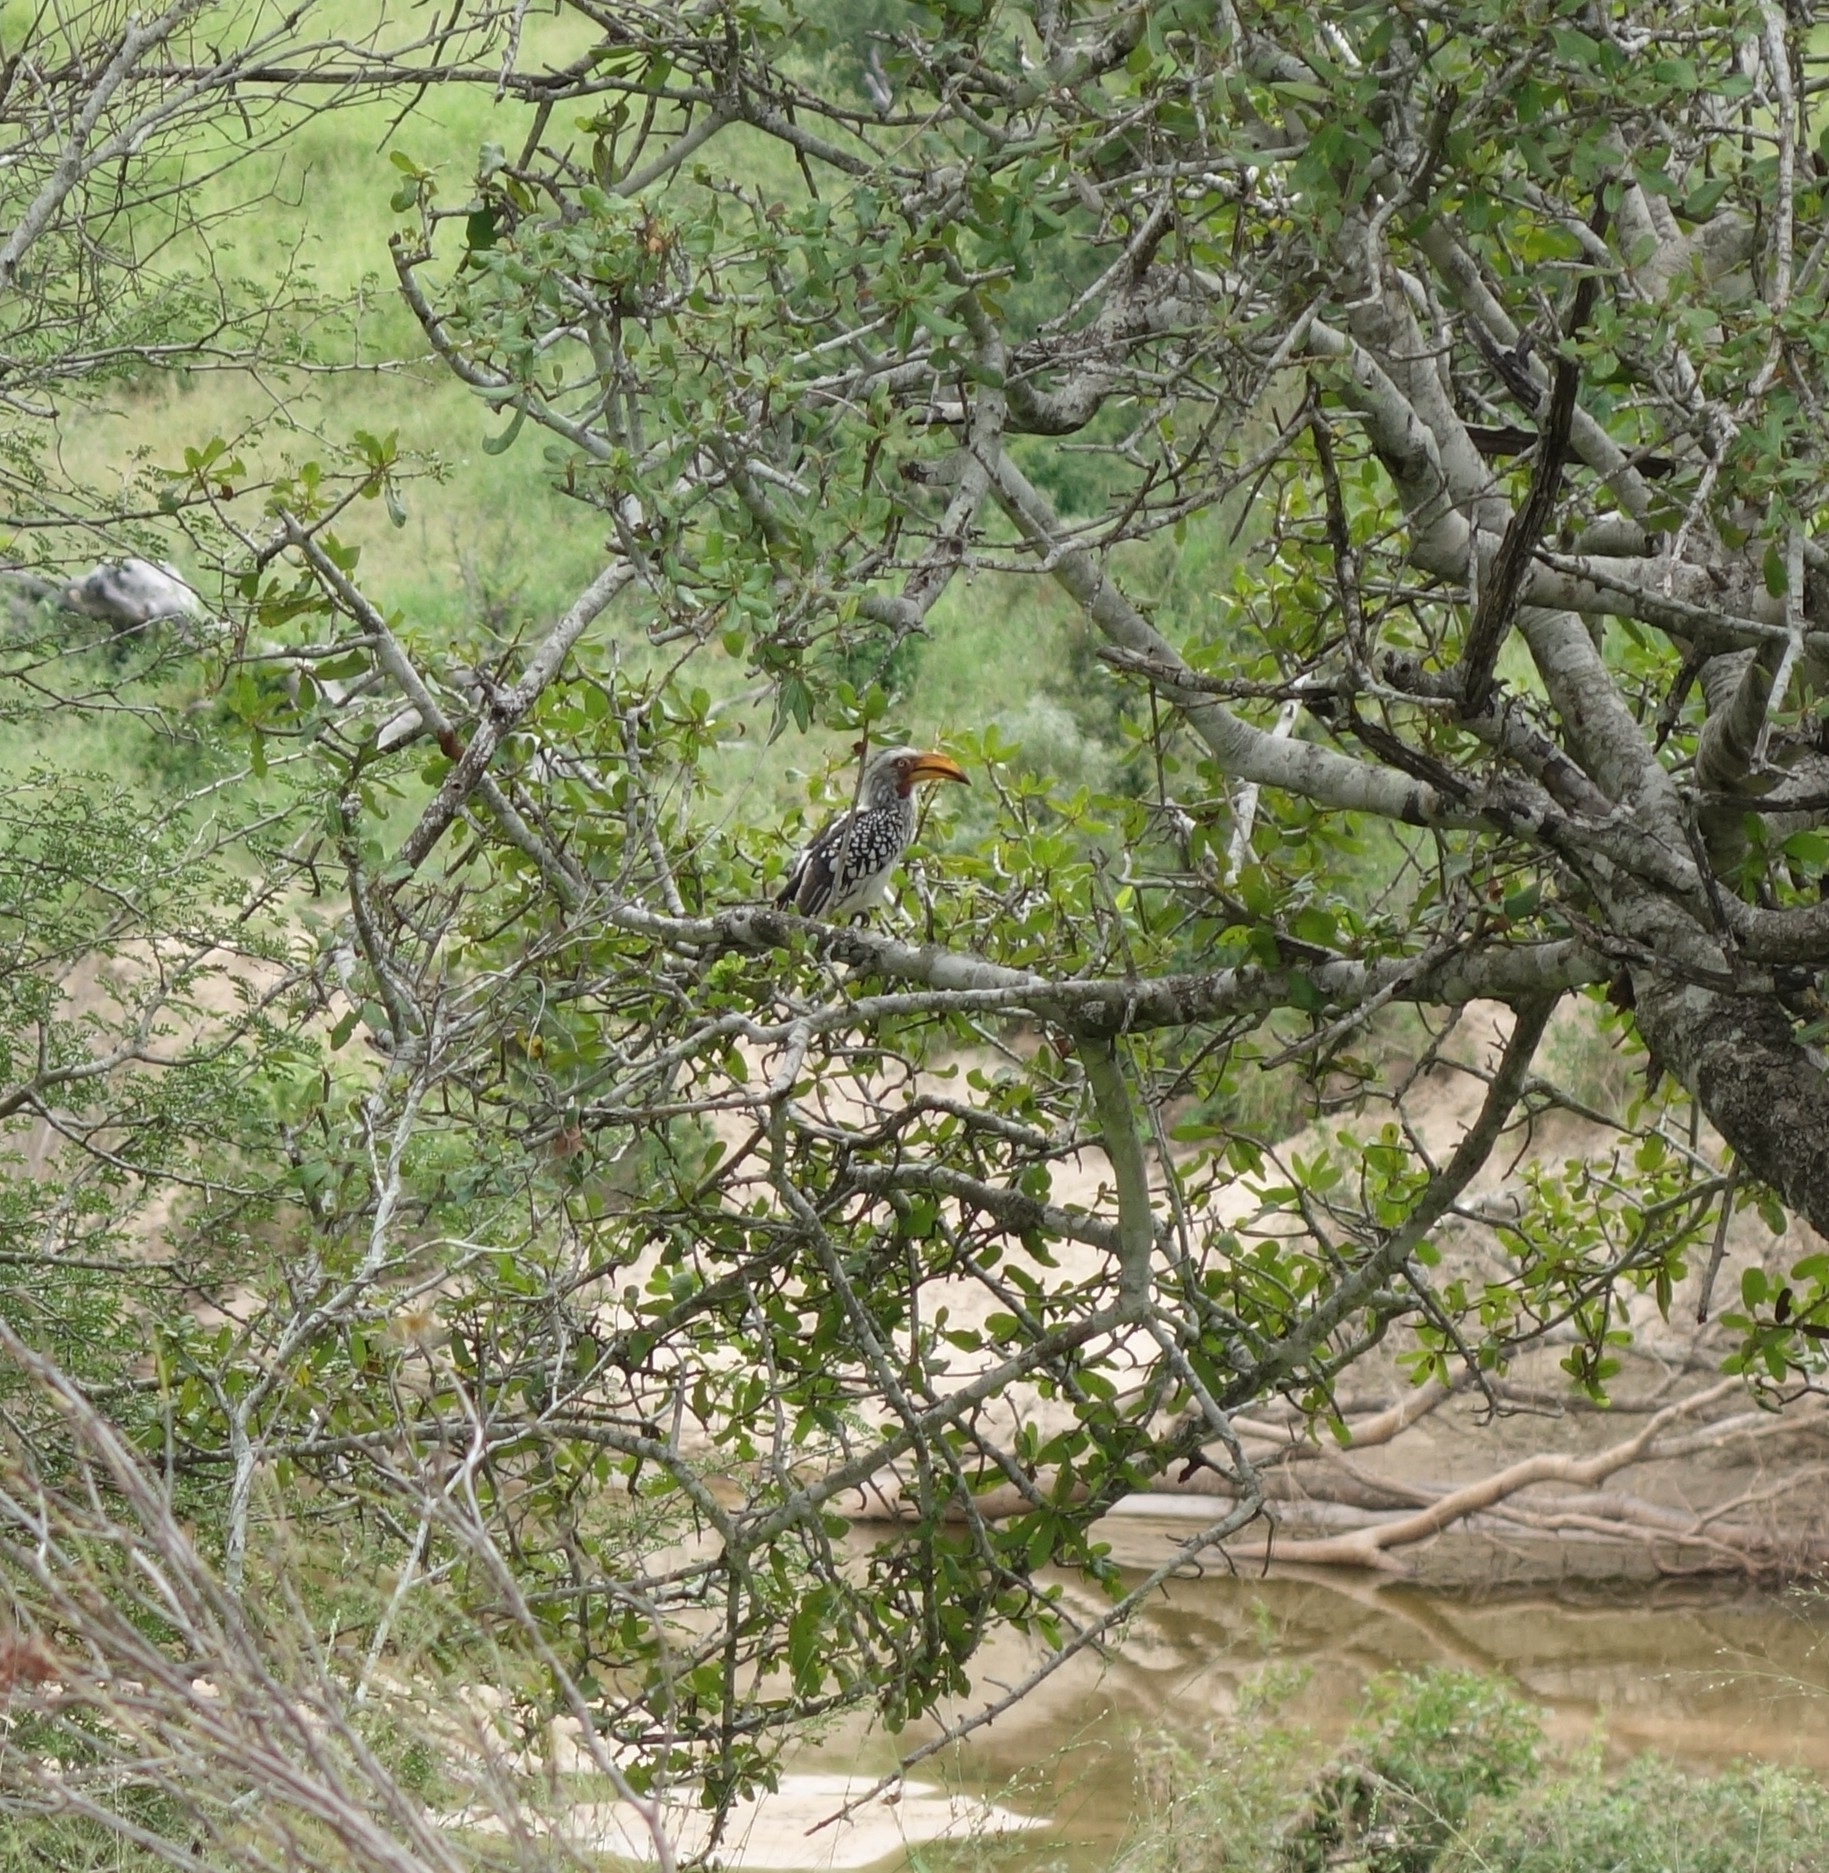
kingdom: Animalia
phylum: Chordata
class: Aves
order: Bucerotiformes
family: Bucerotidae
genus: Tockus
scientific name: Tockus leucomelas
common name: Southern yellow-billed hornbill
